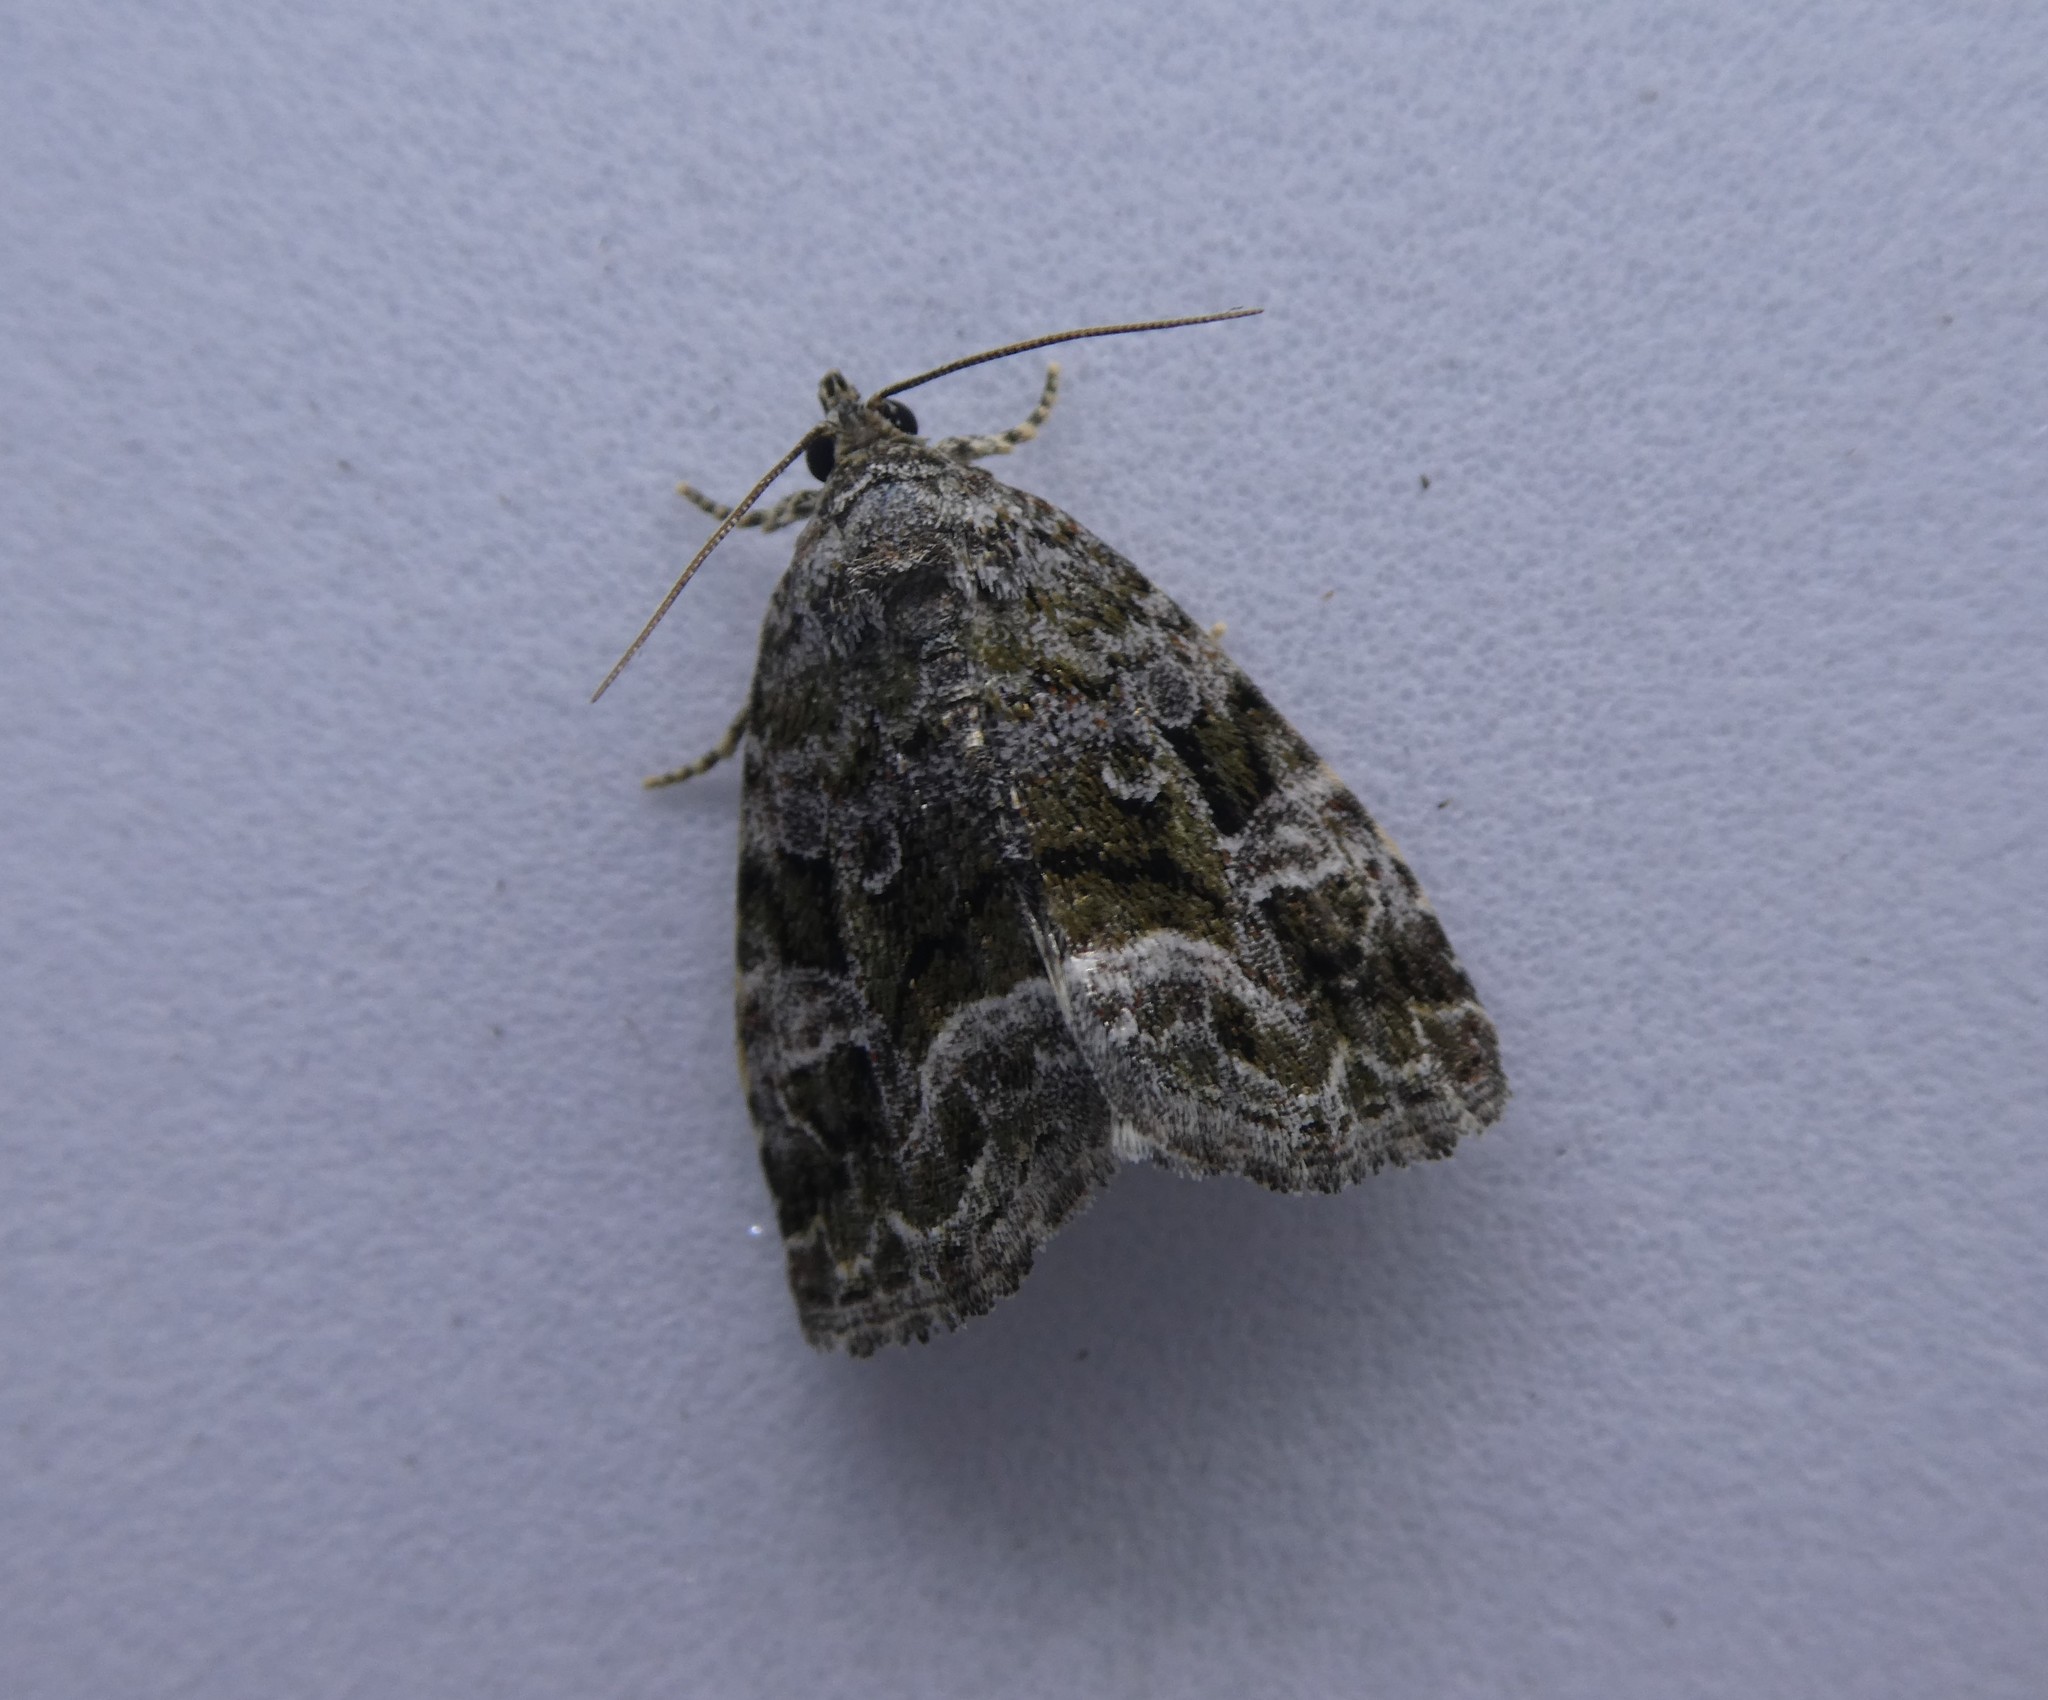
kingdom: Animalia
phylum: Arthropoda
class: Insecta
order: Lepidoptera
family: Noctuidae
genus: Protodeltote
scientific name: Protodeltote muscosula
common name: Large mossy glyph
